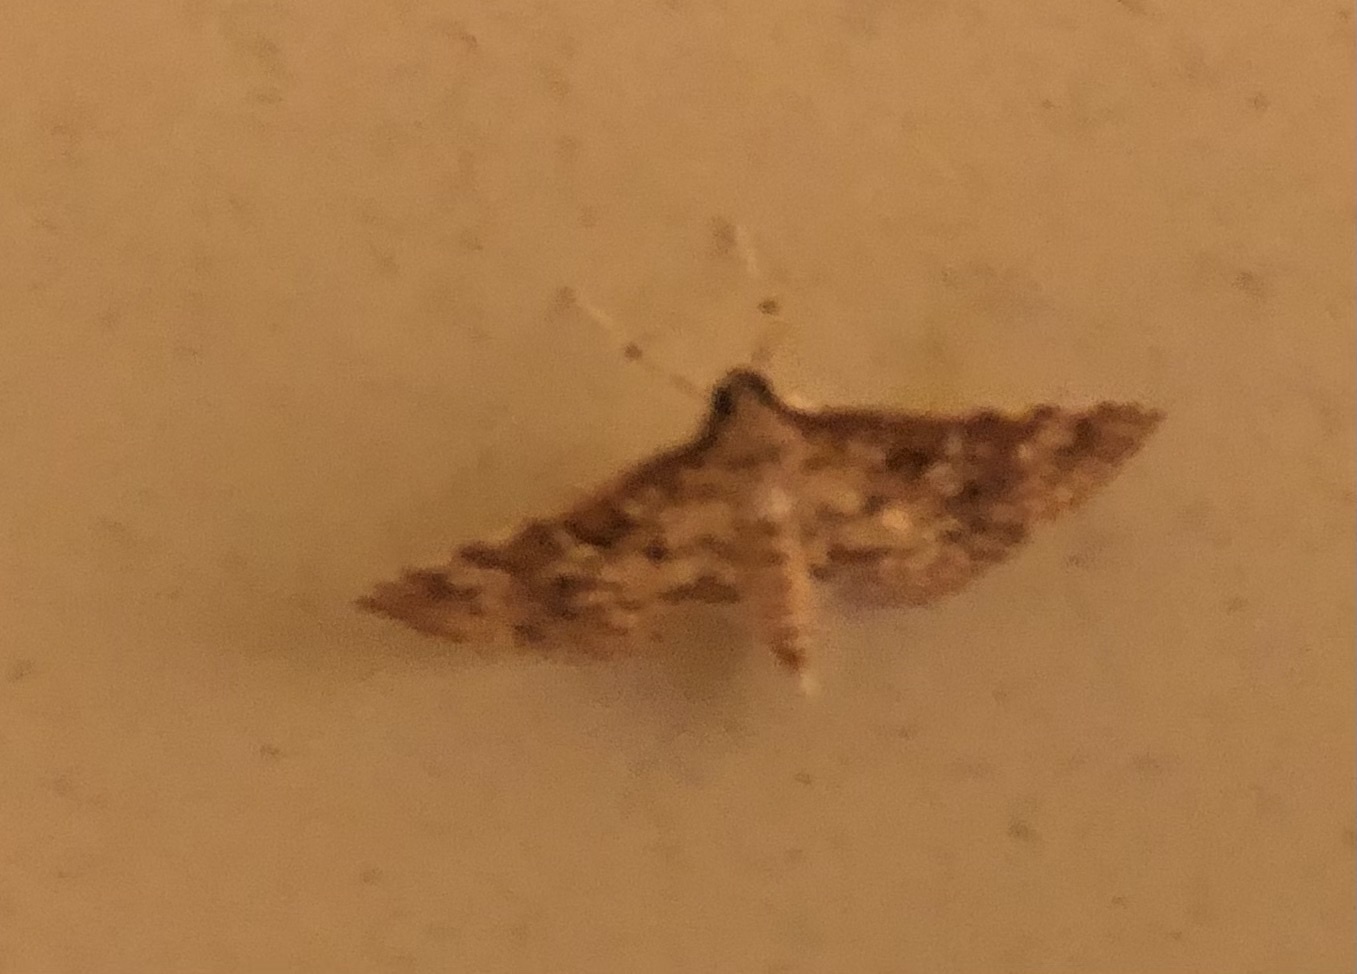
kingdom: Animalia
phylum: Arthropoda
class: Insecta
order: Lepidoptera
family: Crambidae
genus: Samea
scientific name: Samea ecclesialis
